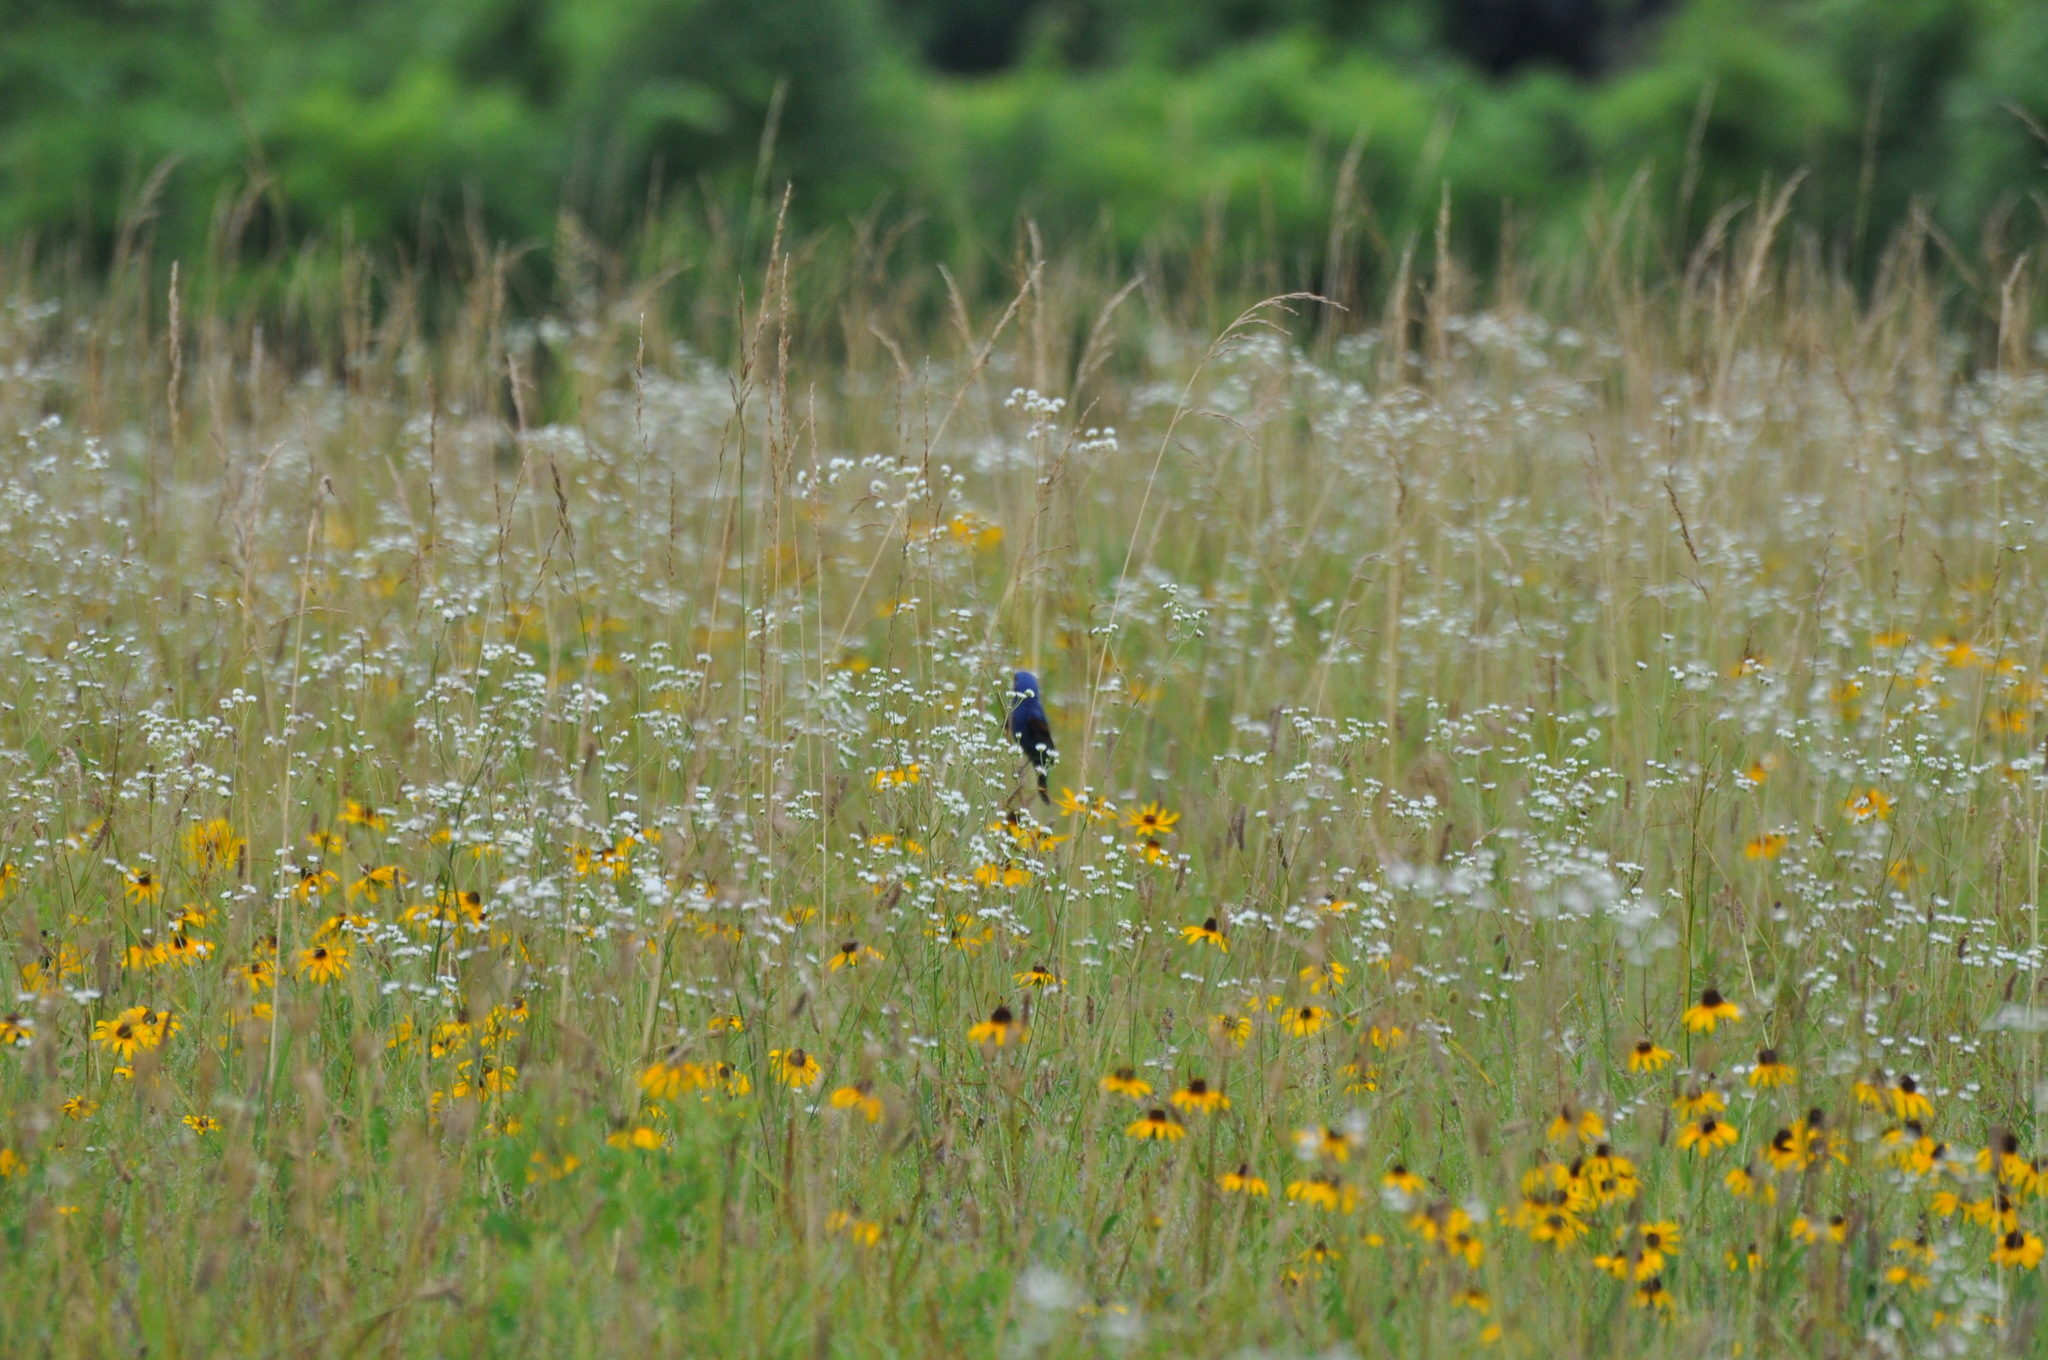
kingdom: Animalia
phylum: Chordata
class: Aves
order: Passeriformes
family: Cardinalidae
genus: Passerina
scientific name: Passerina caerulea
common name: Blue grosbeak
